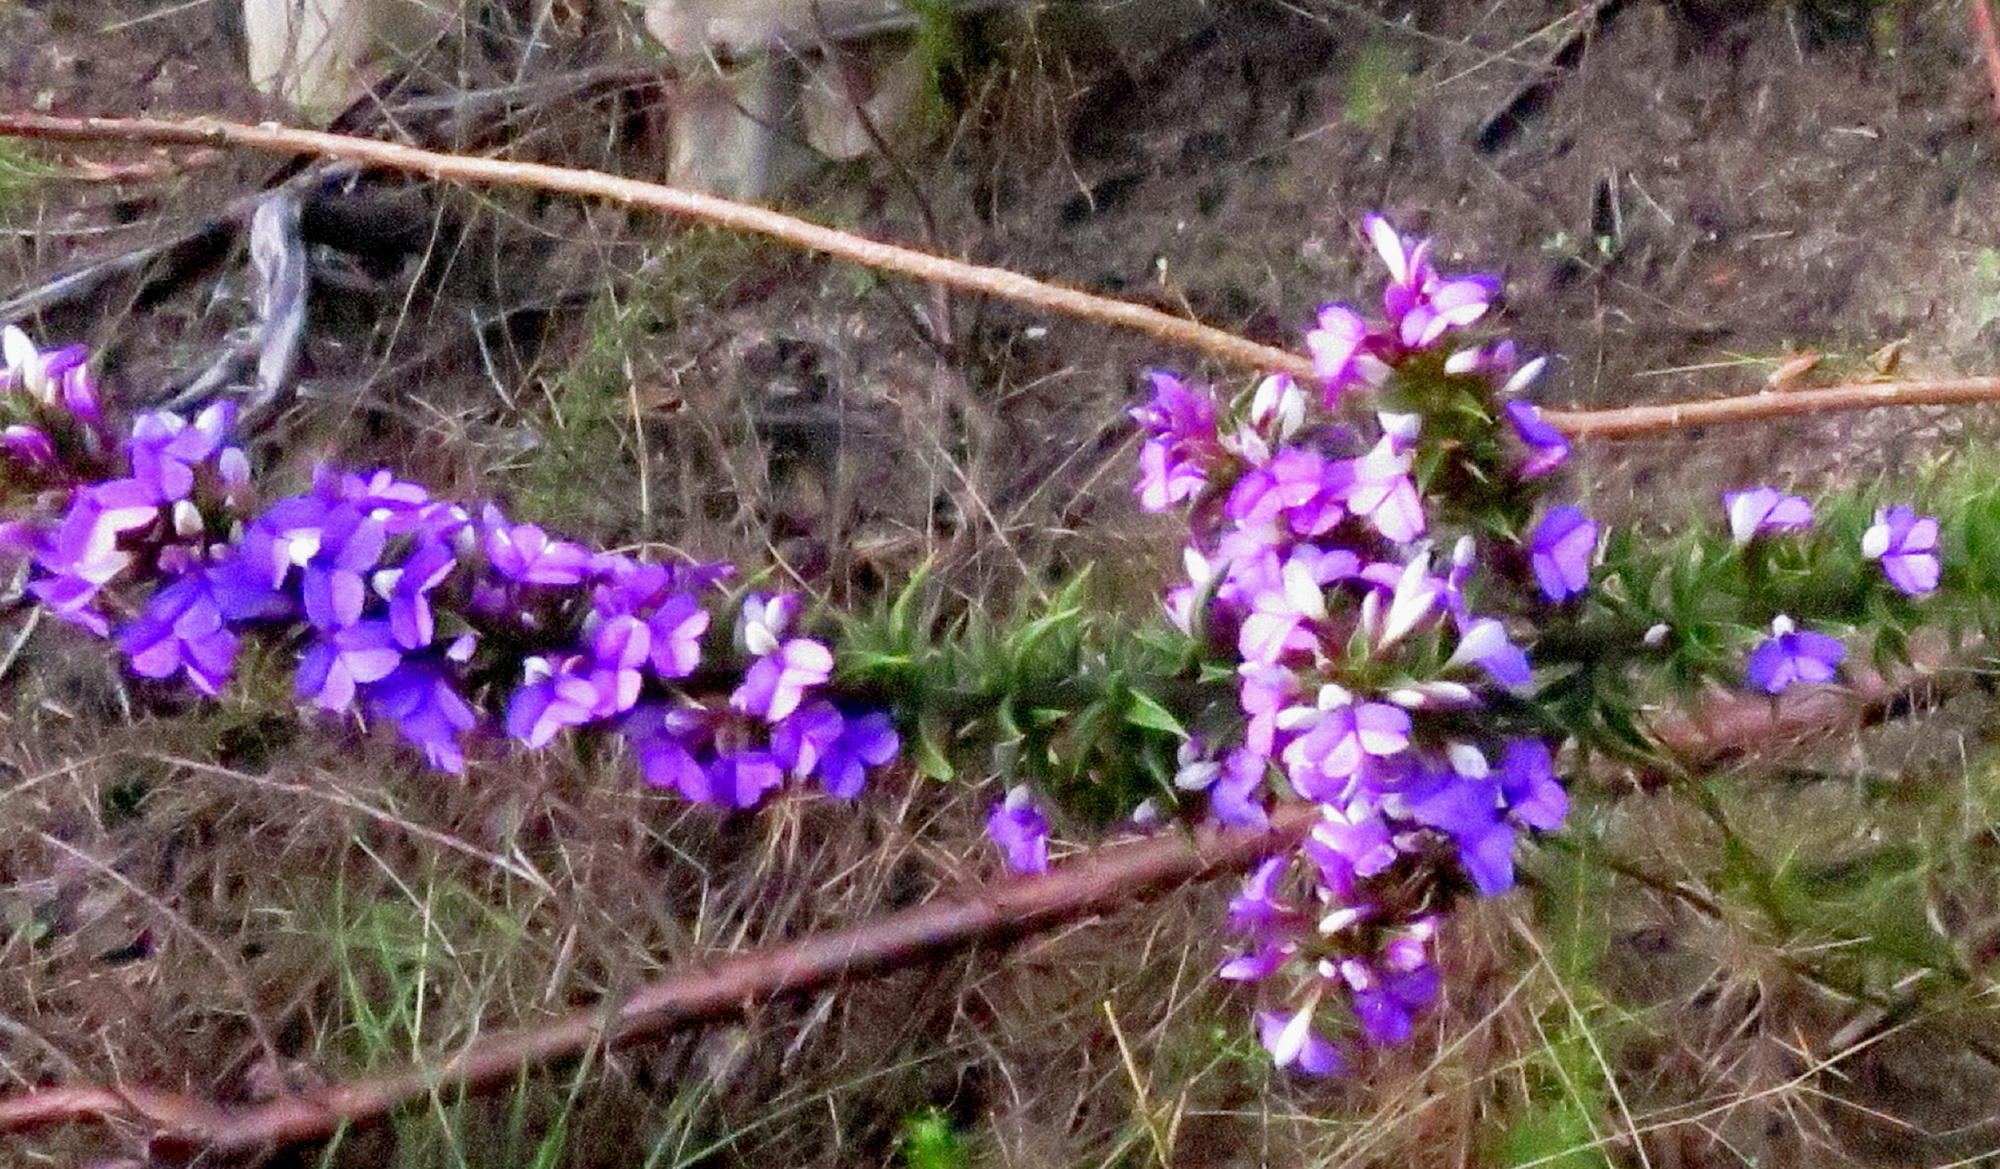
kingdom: Plantae
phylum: Tracheophyta
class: Magnoliopsida
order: Fabales
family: Polygalaceae
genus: Muraltia
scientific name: Muraltia heisteria
